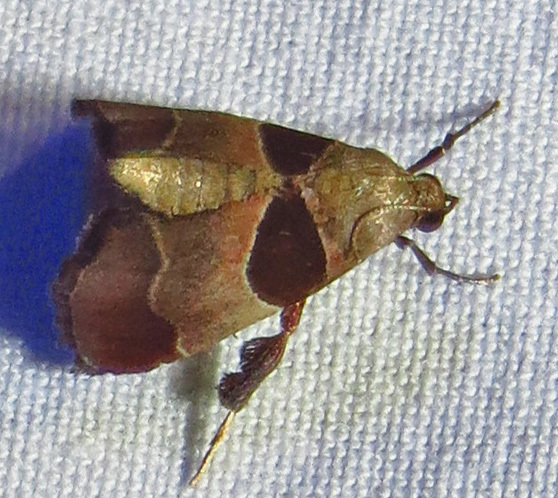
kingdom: Animalia
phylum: Arthropoda
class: Insecta
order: Lepidoptera
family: Pyralidae
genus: Tosale
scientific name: Tosale oviplagalis
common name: Dimorphic tosale moth
